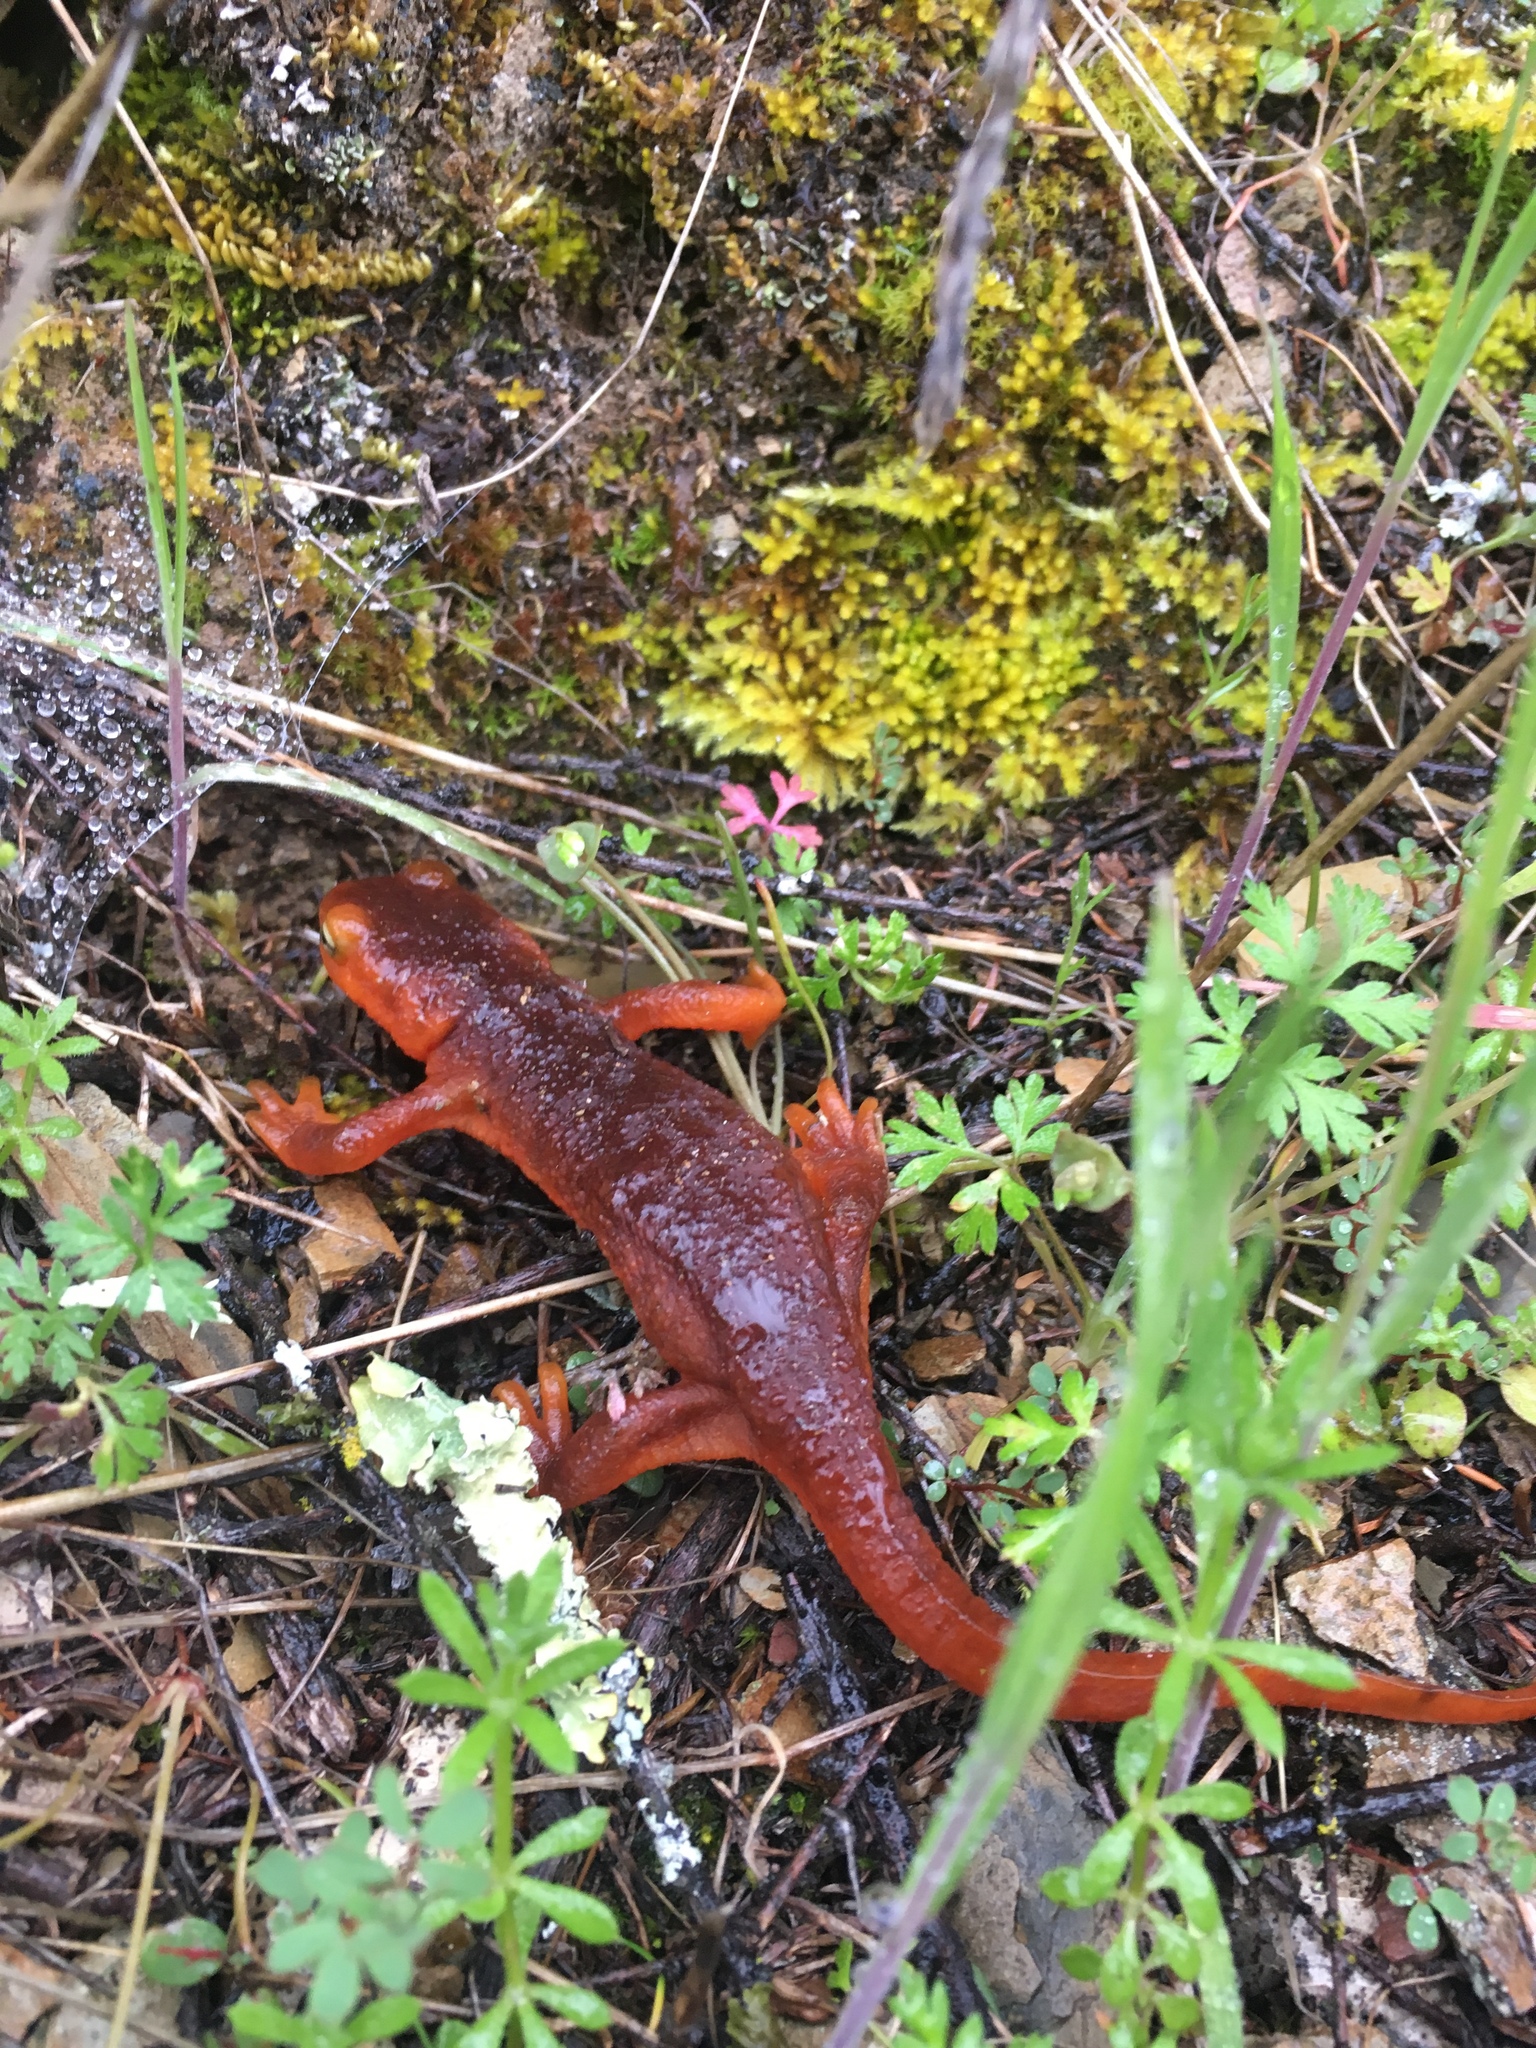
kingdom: Animalia
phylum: Chordata
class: Amphibia
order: Caudata
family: Salamandridae
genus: Taricha
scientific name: Taricha sierrae
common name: Sierra newt
